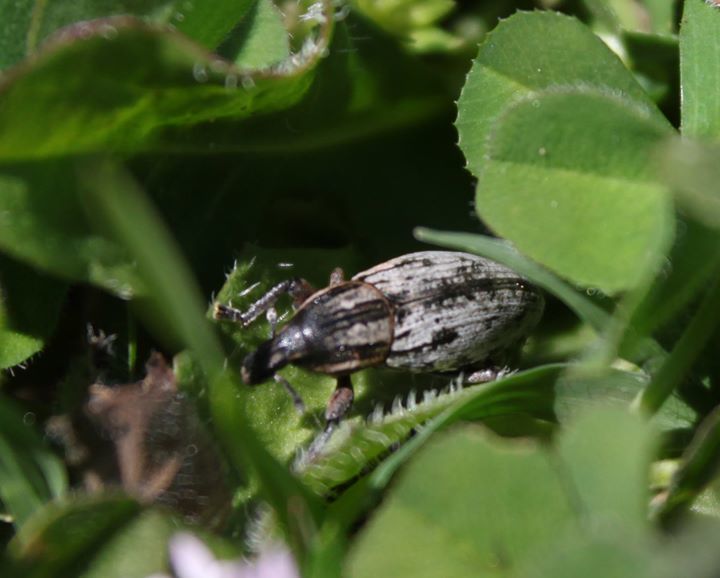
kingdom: Animalia
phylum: Arthropoda
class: Insecta
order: Coleoptera
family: Curculionidae
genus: Pseudocleonus
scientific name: Pseudocleonus cinereus
